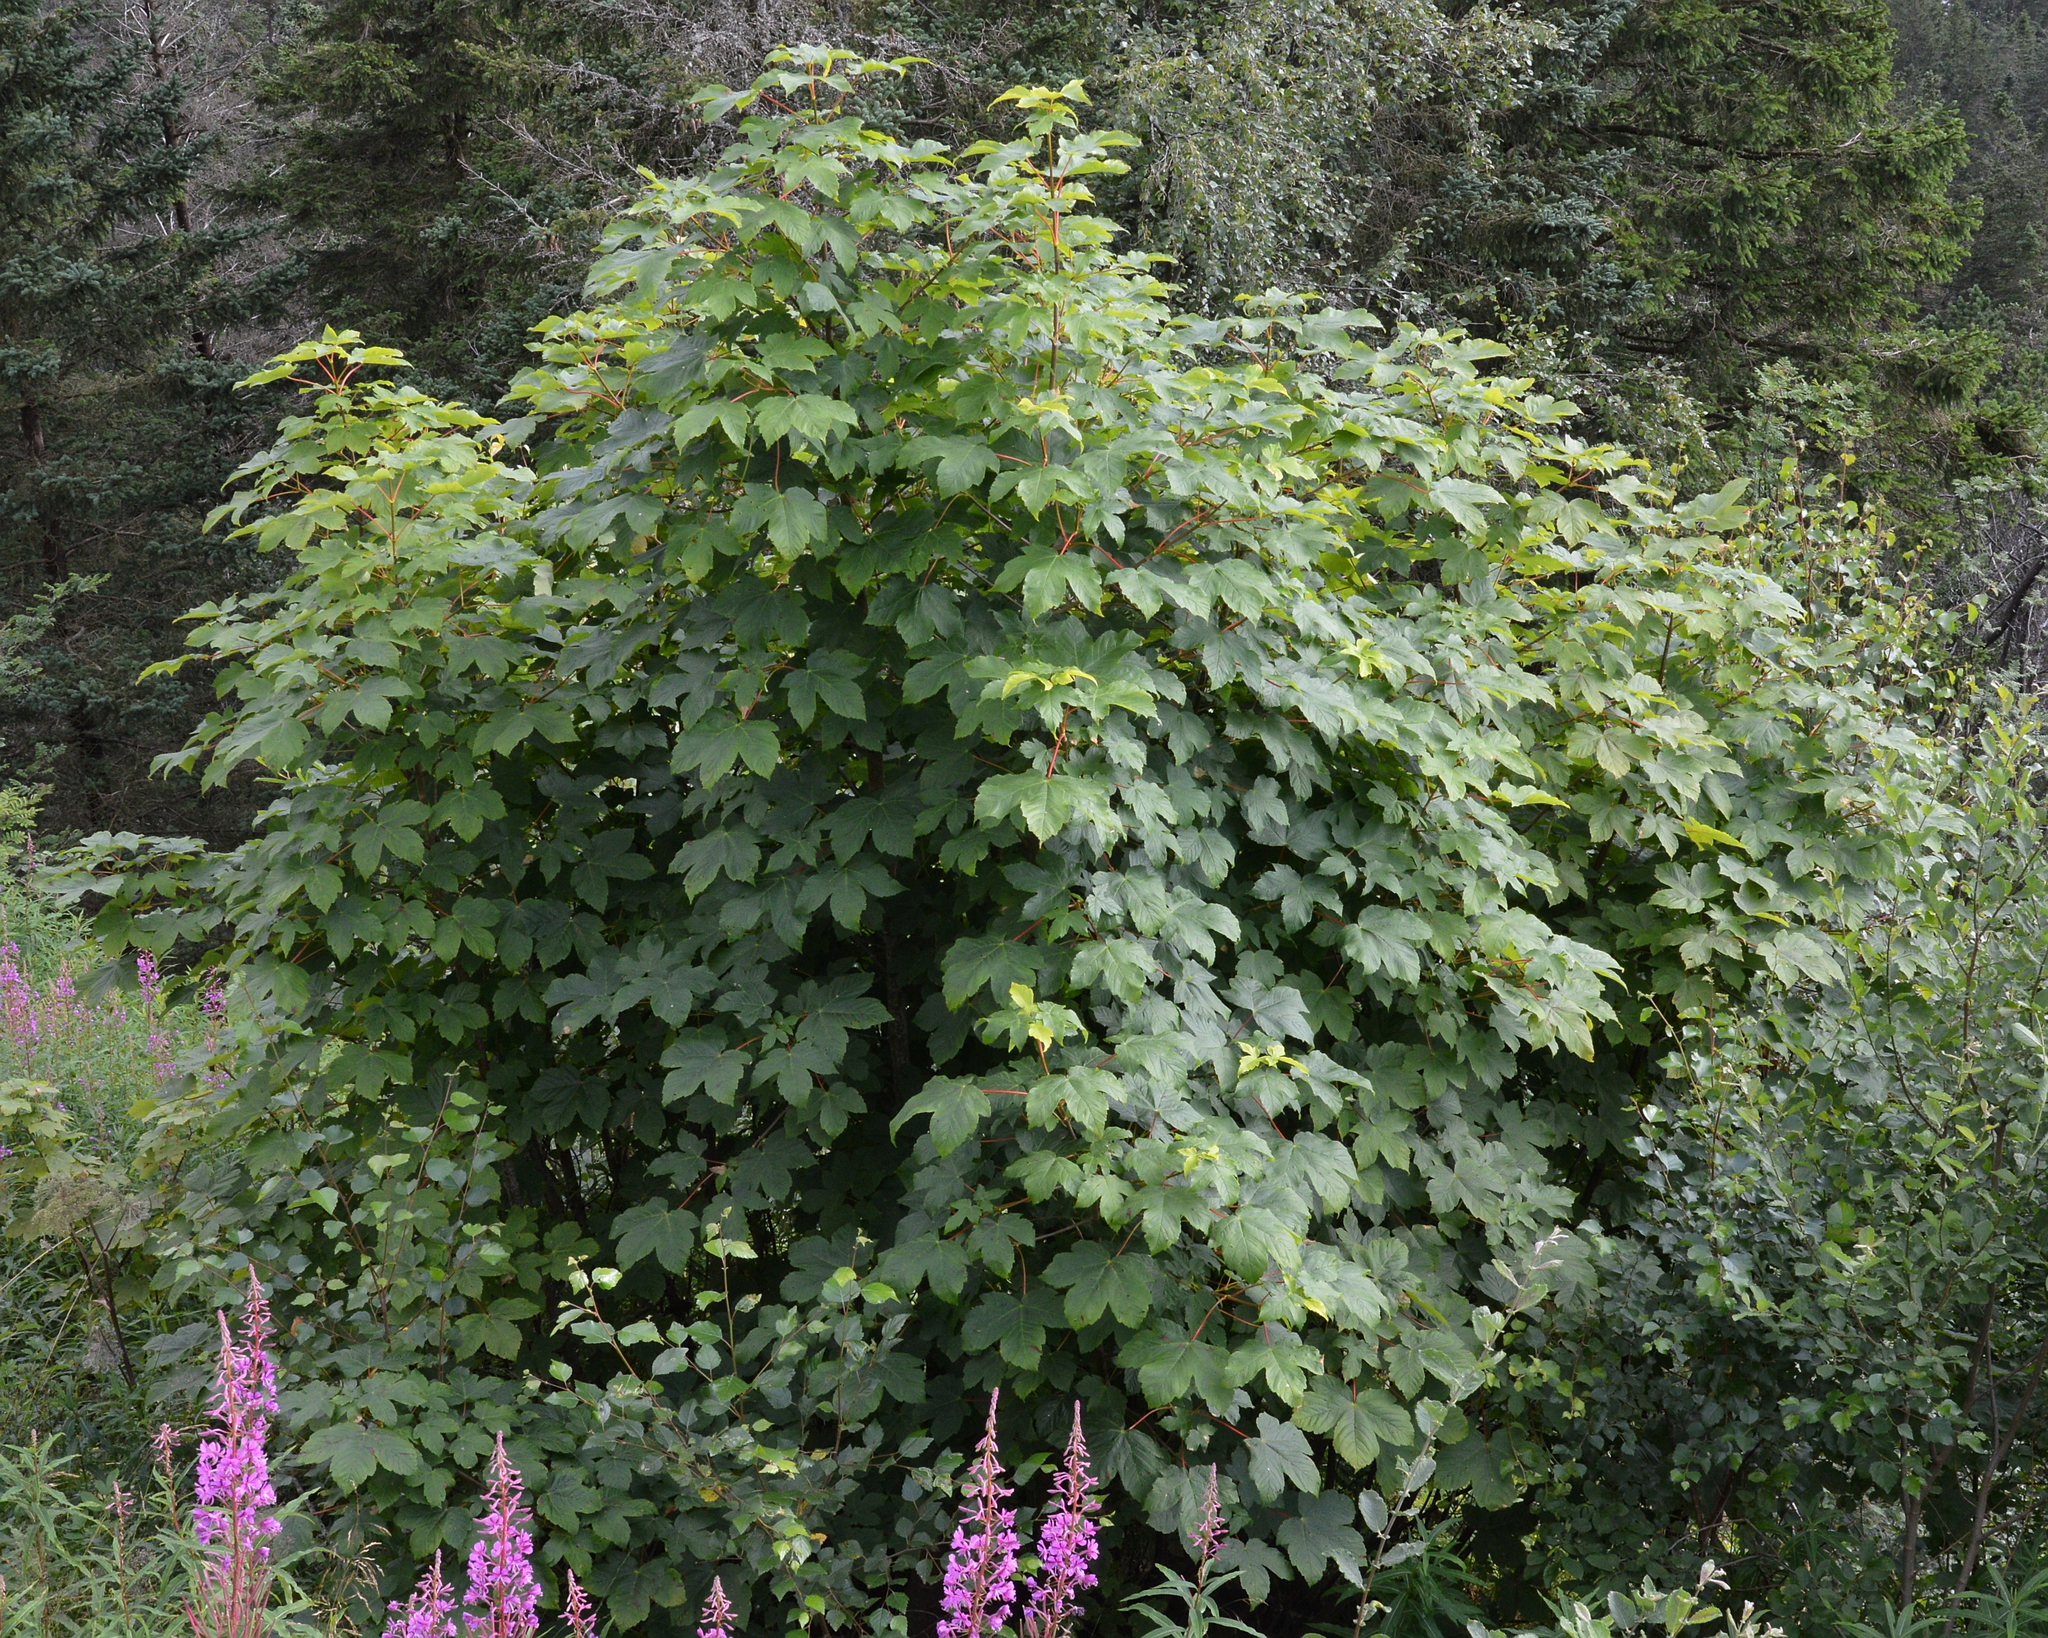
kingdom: Plantae
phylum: Tracheophyta
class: Magnoliopsida
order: Sapindales
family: Sapindaceae
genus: Acer
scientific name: Acer pseudoplatanus
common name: Sycamore
